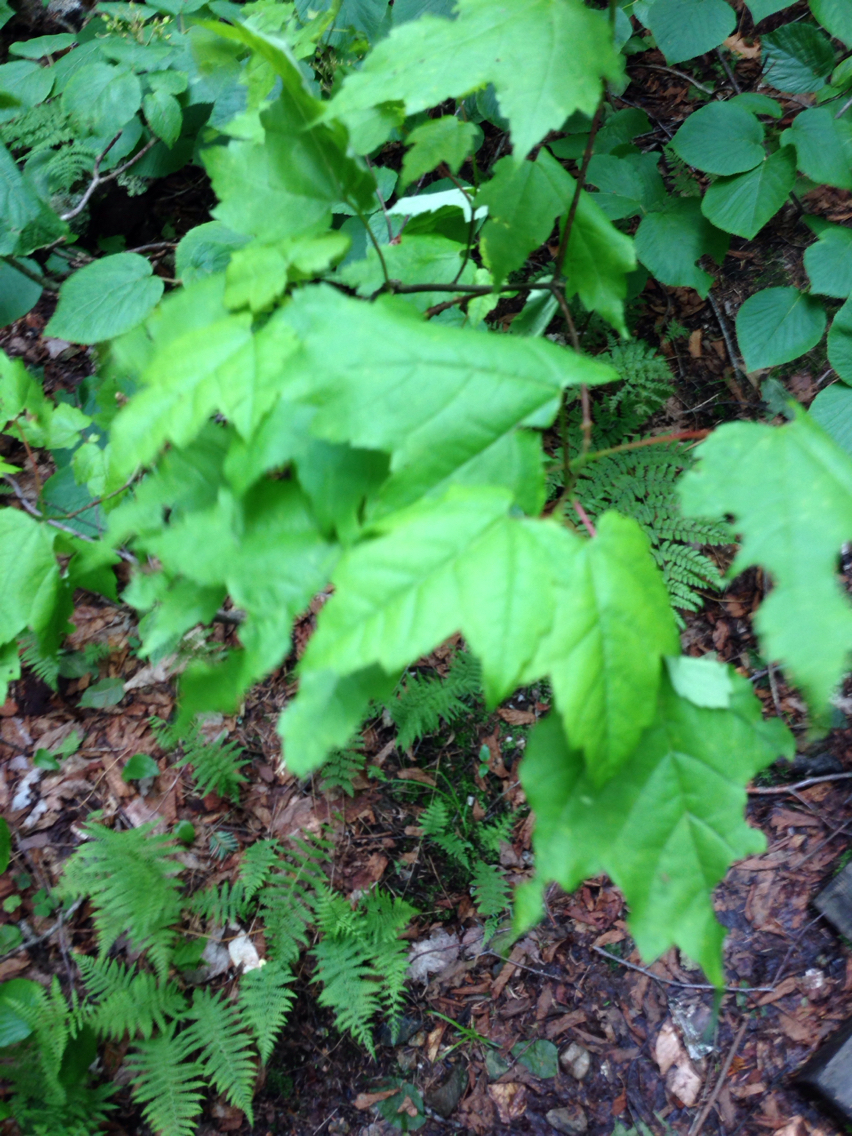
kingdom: Plantae
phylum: Tracheophyta
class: Magnoliopsida
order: Sapindales
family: Sapindaceae
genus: Acer
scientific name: Acer rubrum
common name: Red maple
